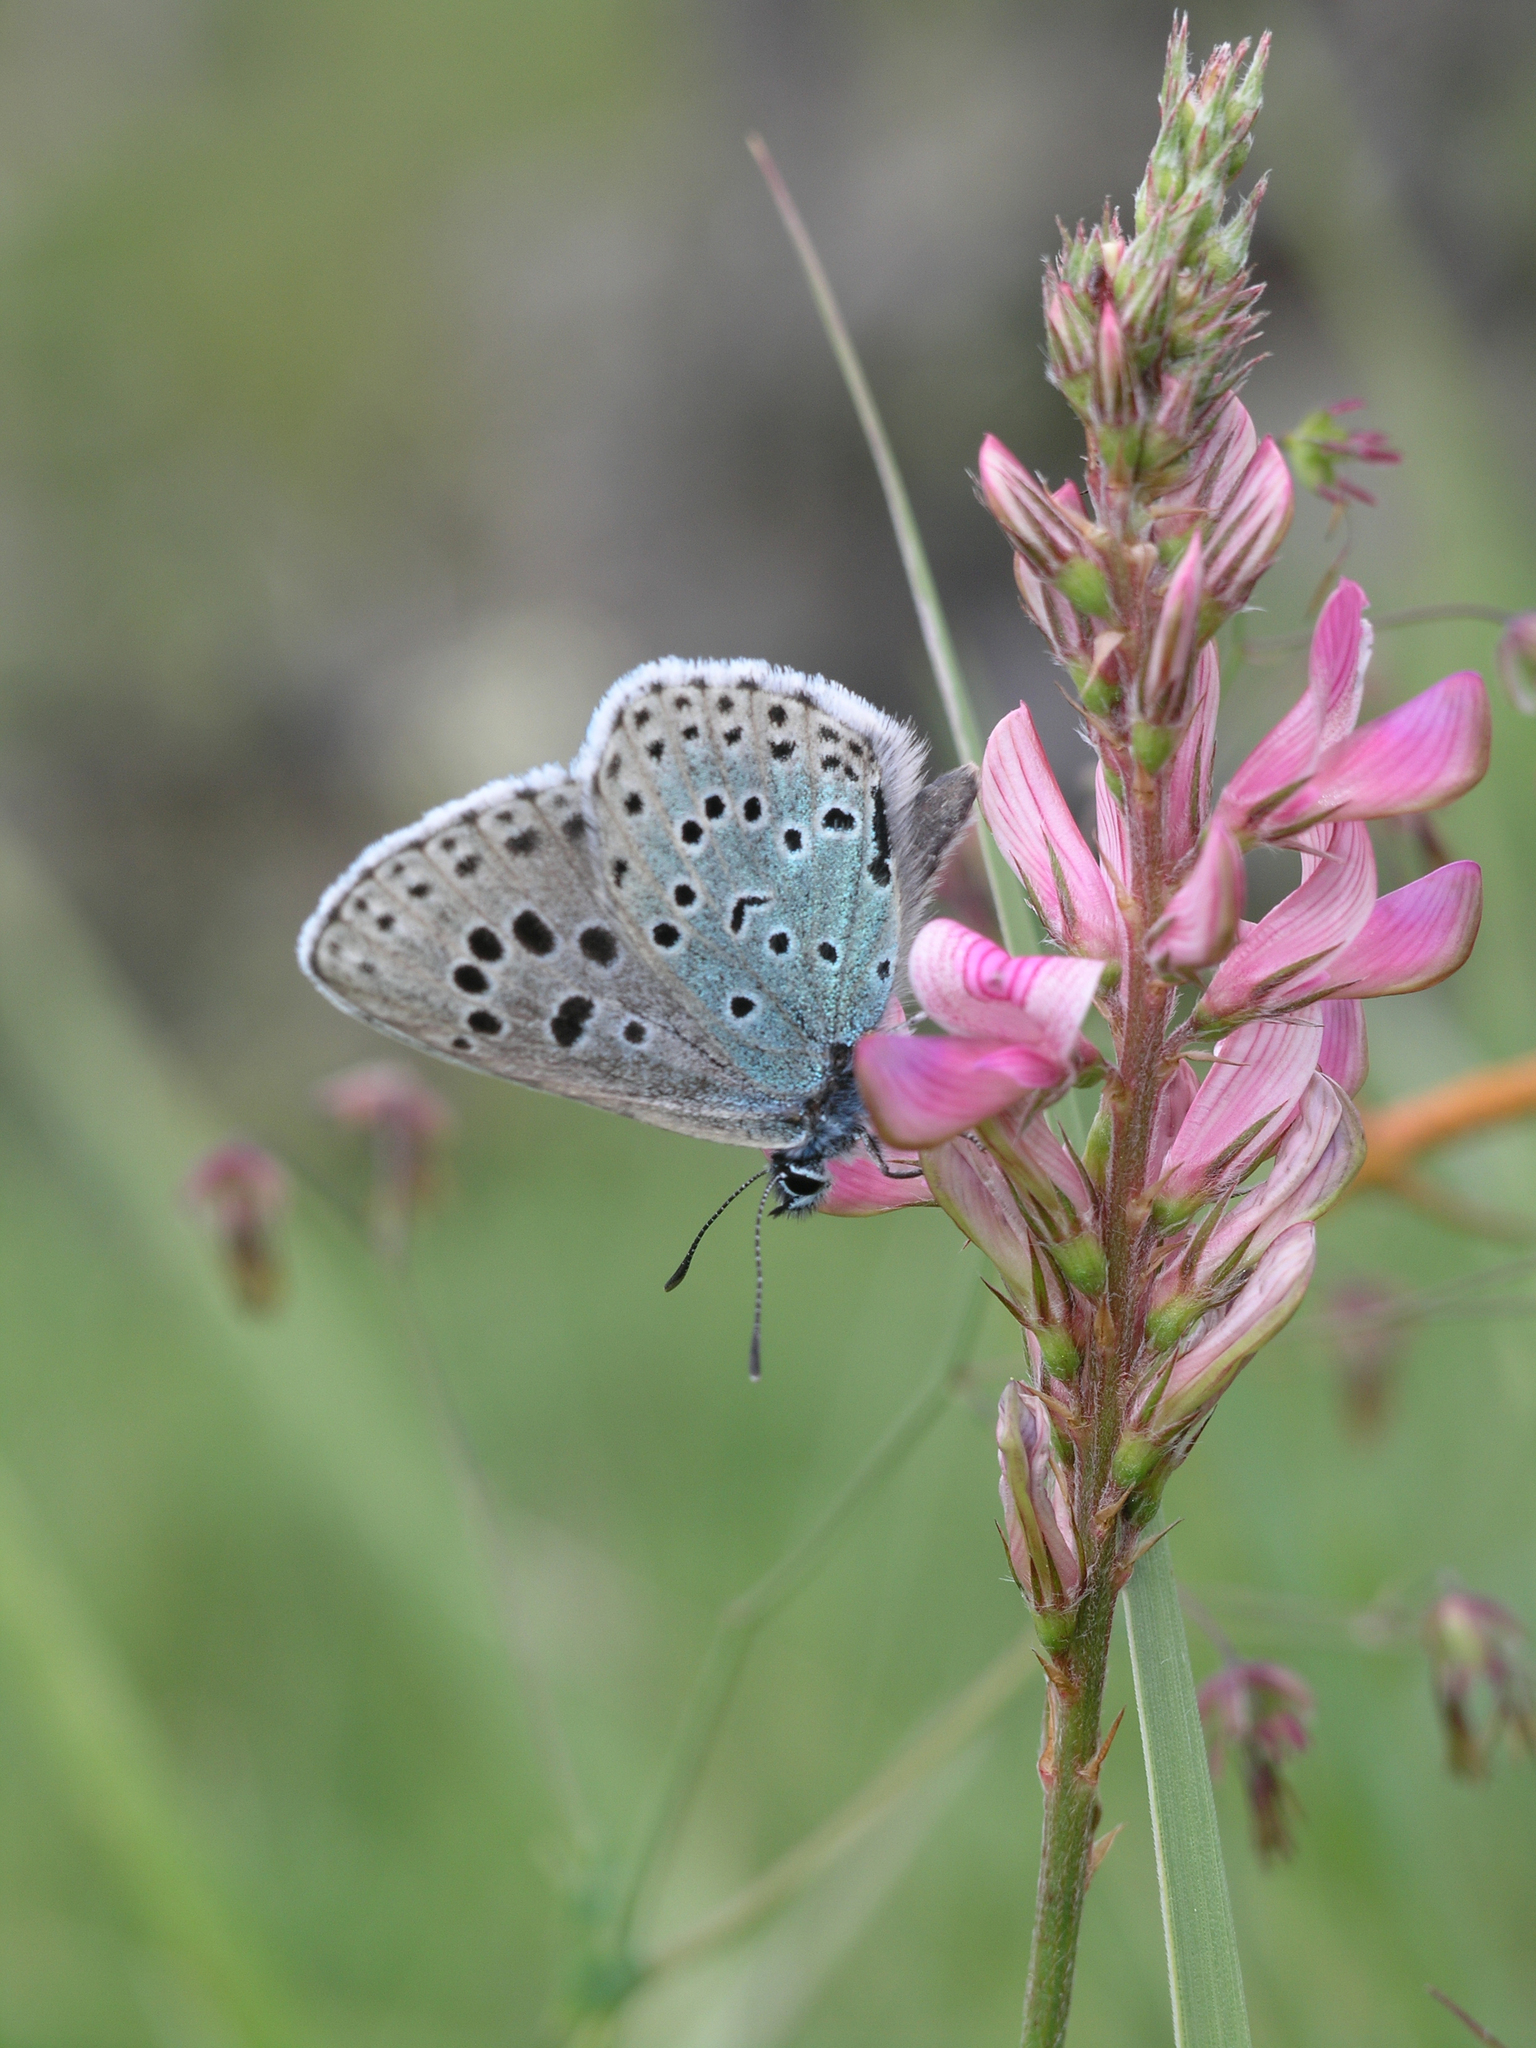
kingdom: Animalia
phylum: Arthropoda
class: Insecta
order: Lepidoptera
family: Lycaenidae
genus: Phengaris
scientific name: Phengaris
